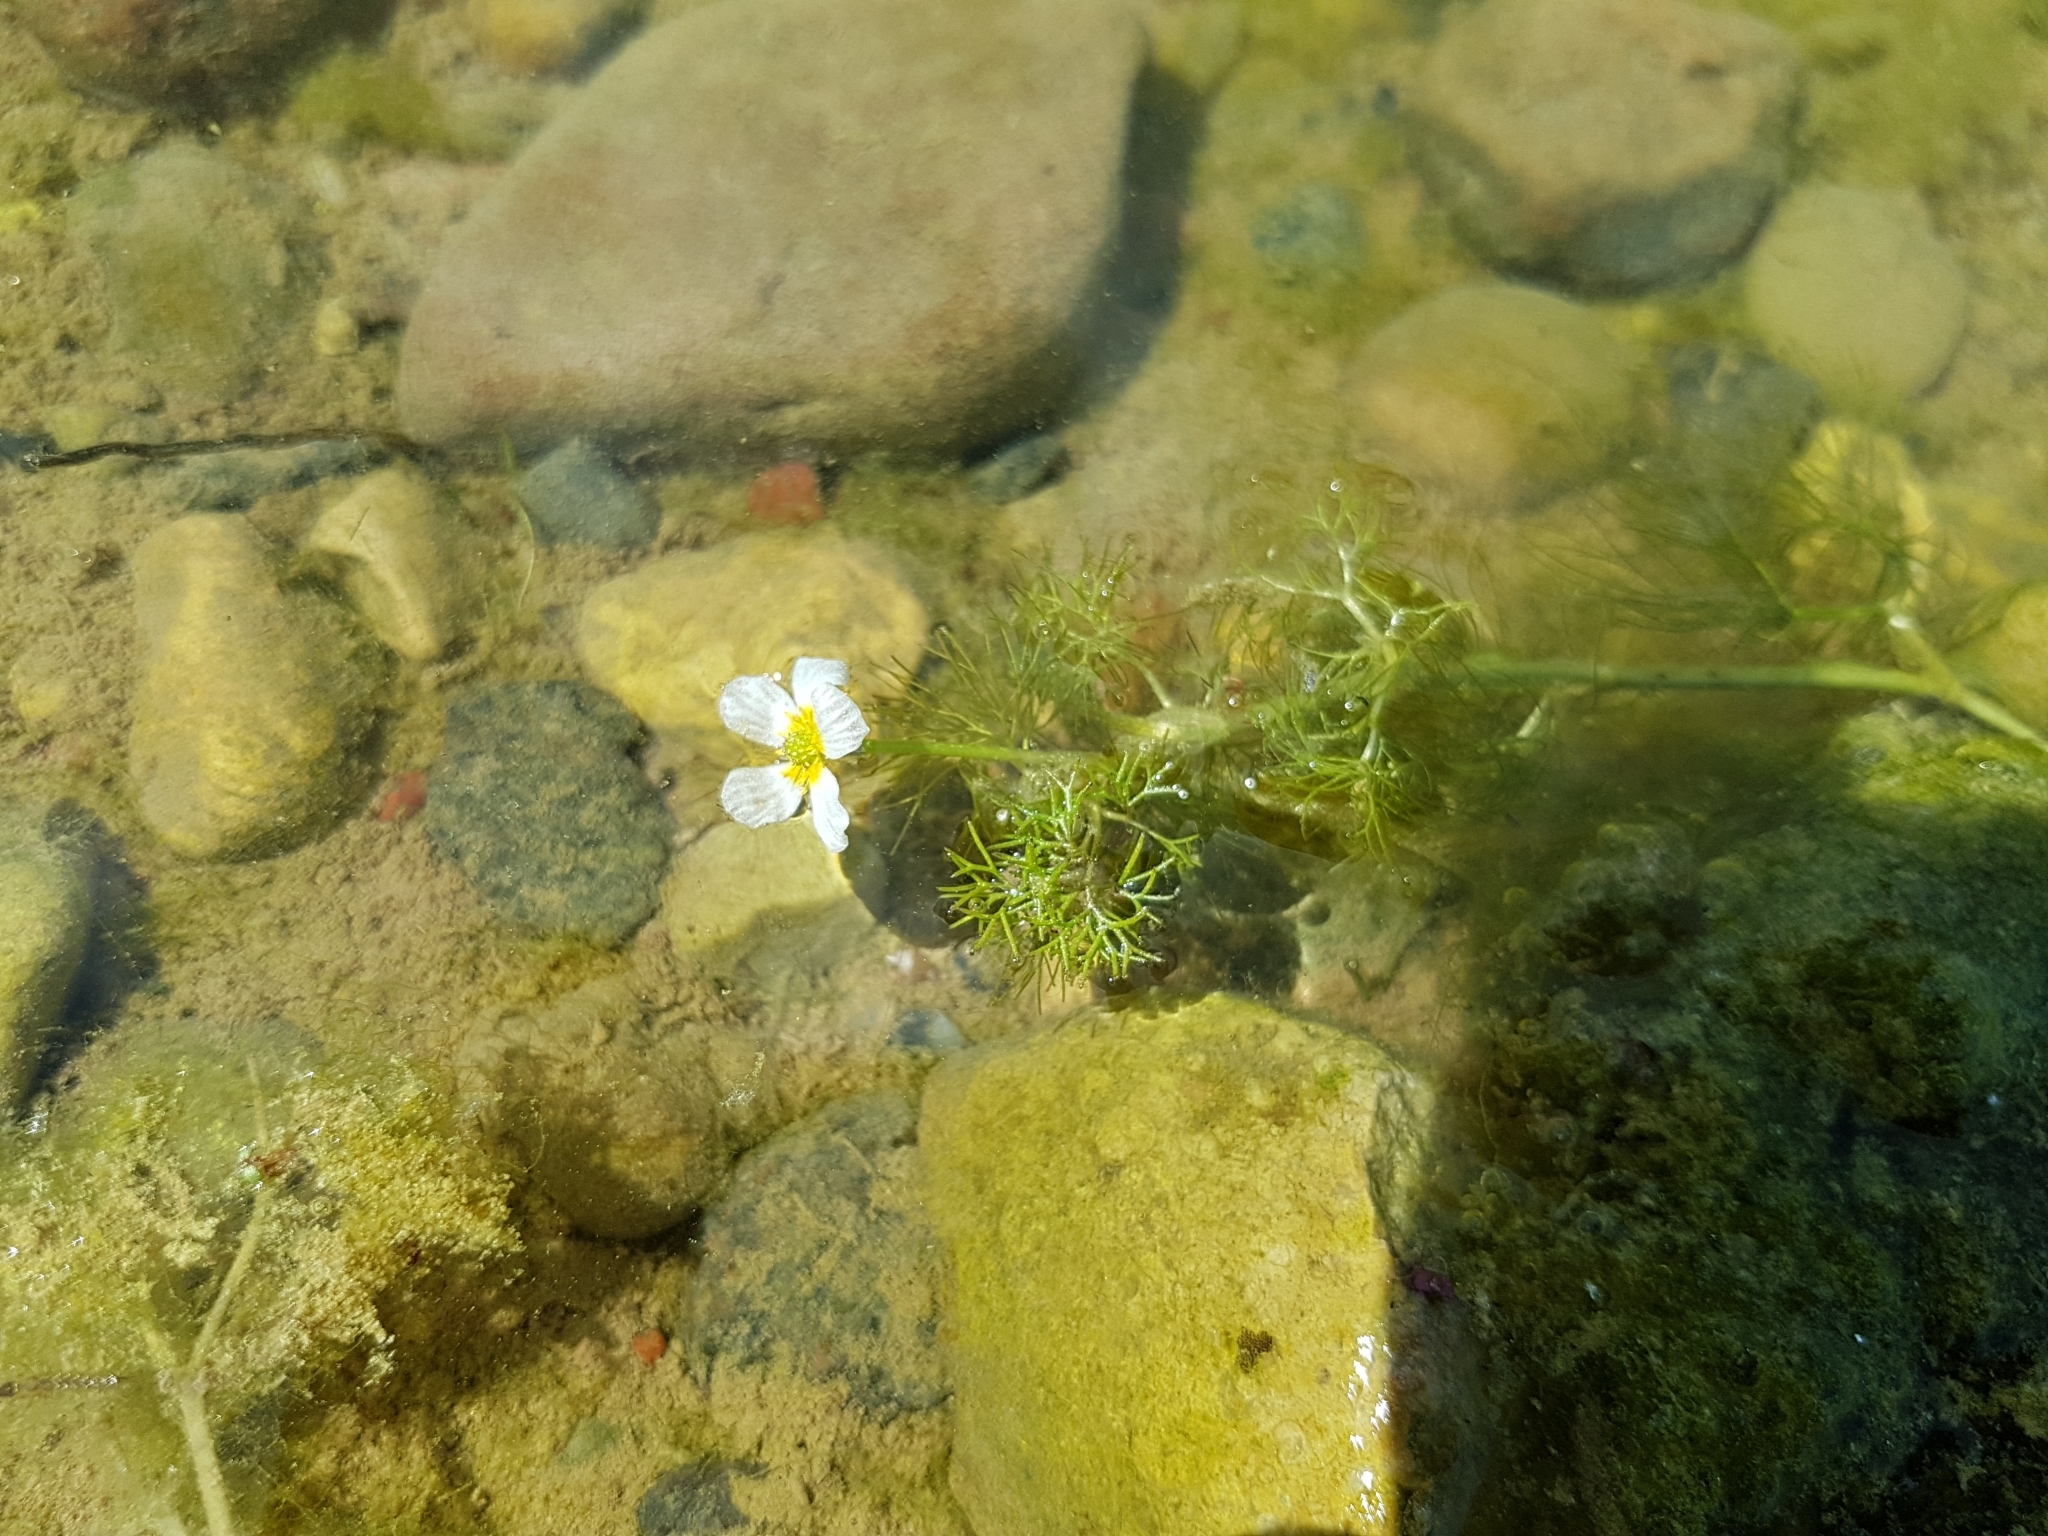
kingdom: Plantae
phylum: Tracheophyta
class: Magnoliopsida
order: Ranunculales
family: Ranunculaceae
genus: Ranunculus
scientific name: Ranunculus circinatus
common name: Fan-leaved water-crowfoot
